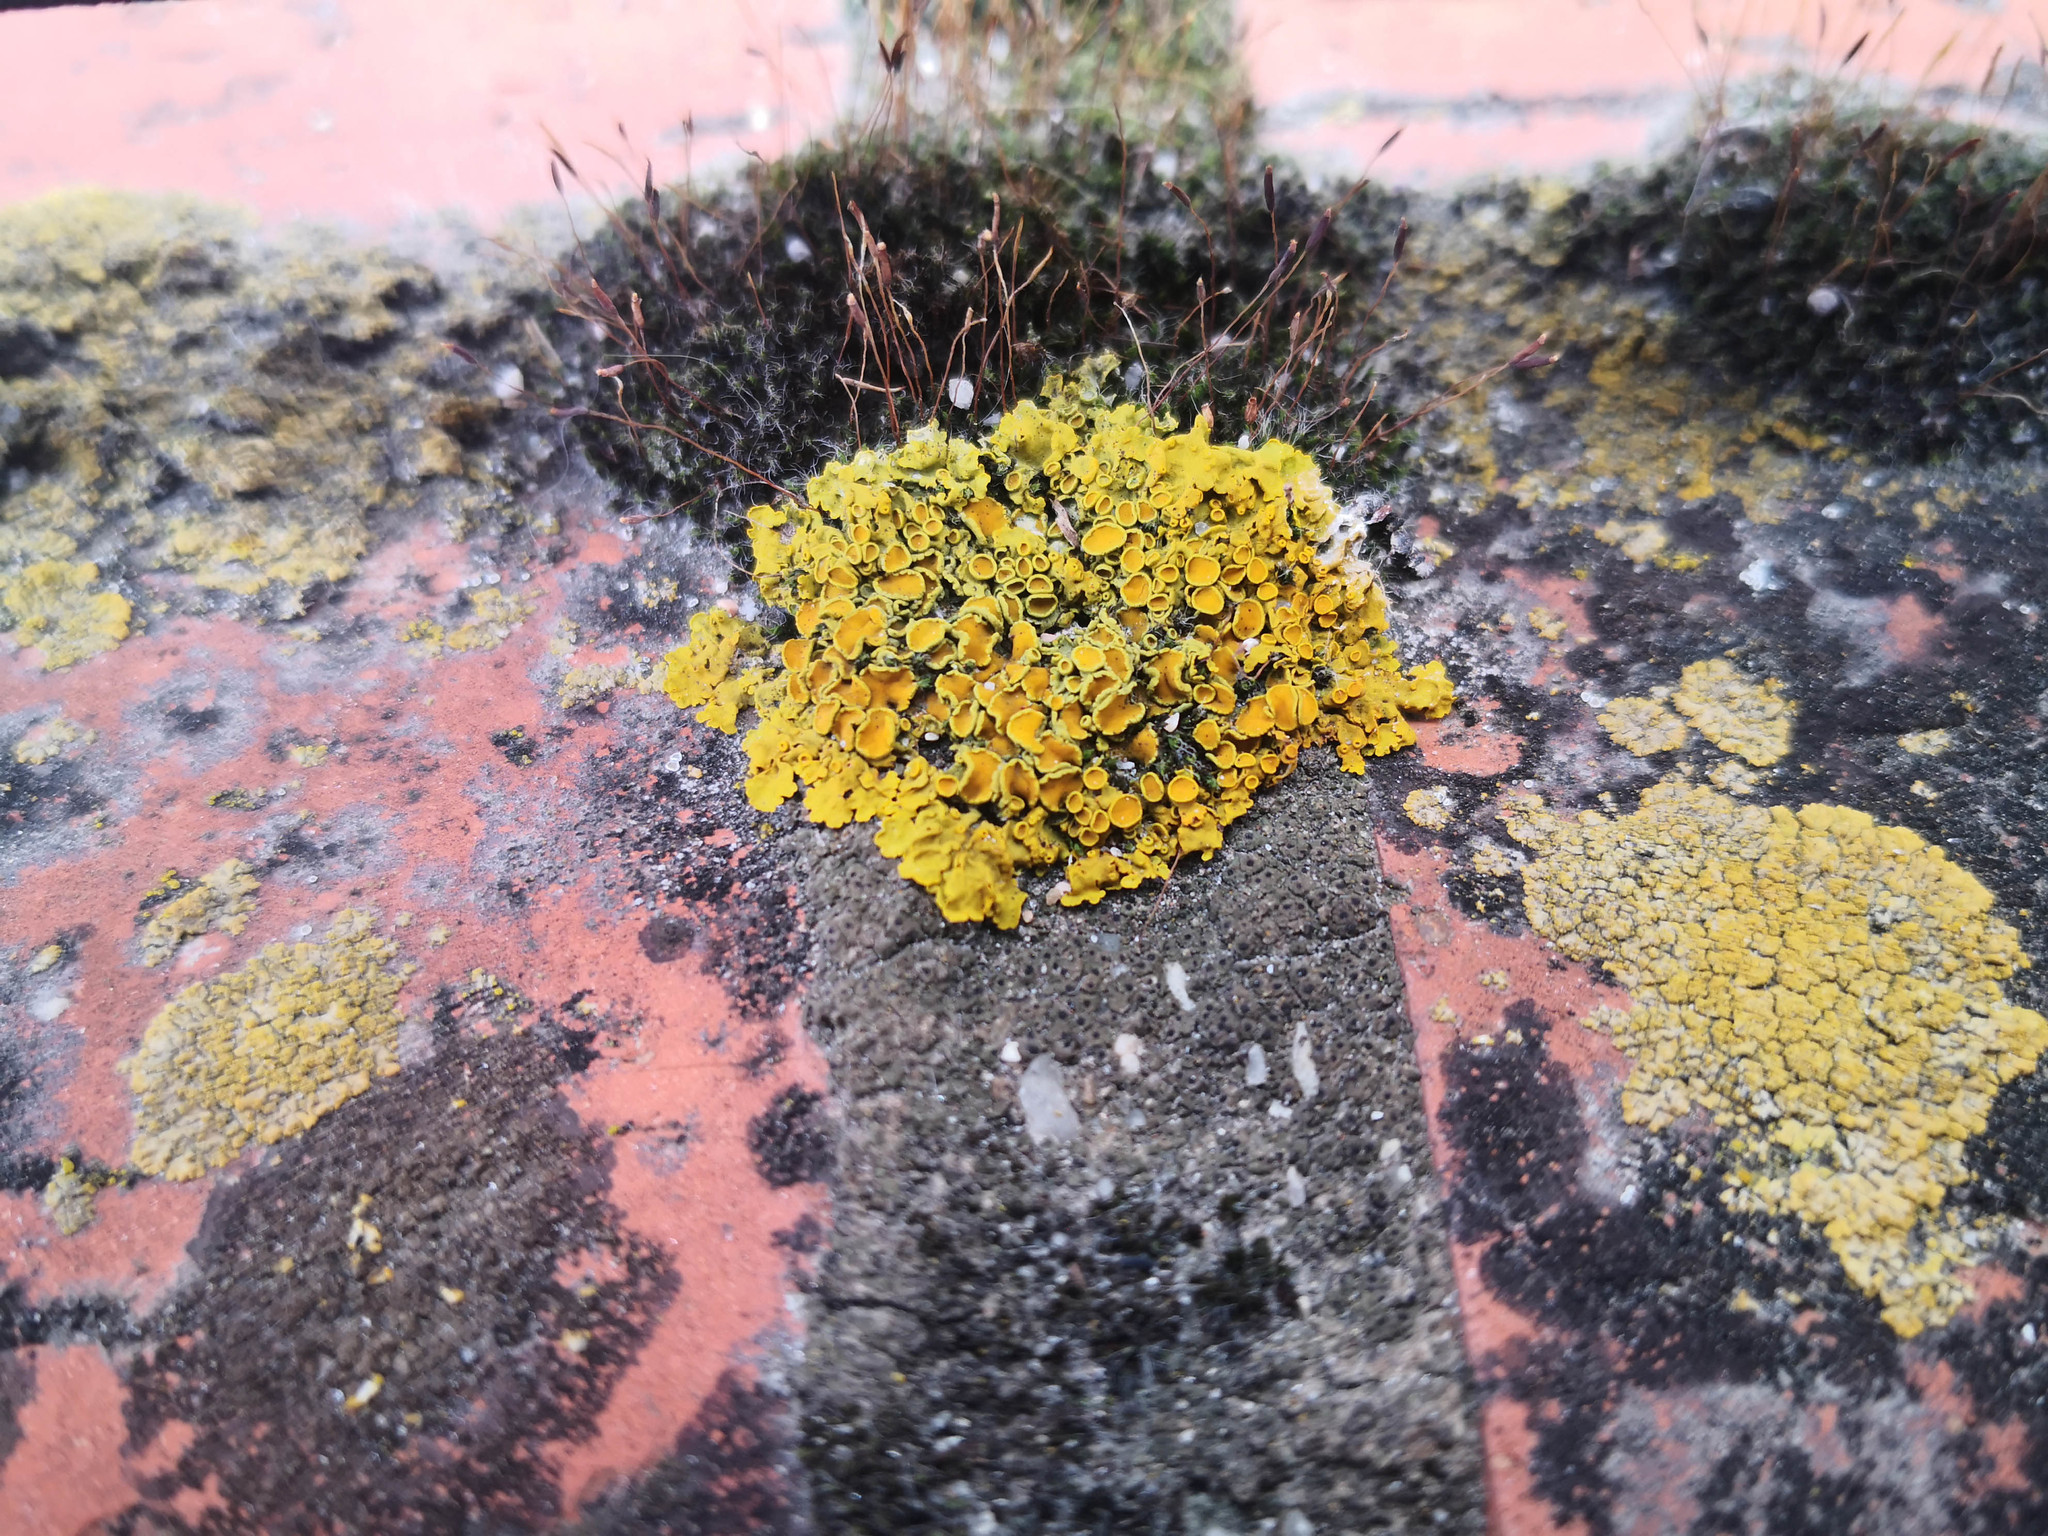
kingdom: Fungi
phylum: Ascomycota
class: Lecanoromycetes
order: Teloschistales
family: Teloschistaceae
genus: Xanthoria
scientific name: Xanthoria parietina
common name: Common orange lichen
